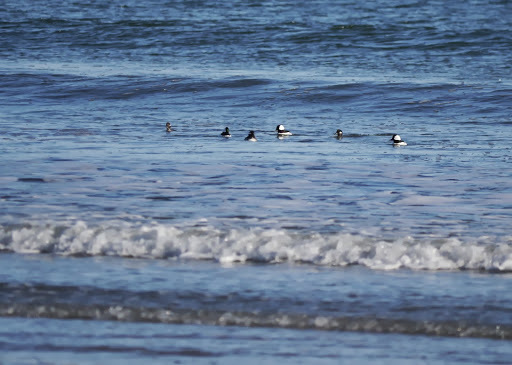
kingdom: Animalia
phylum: Chordata
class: Aves
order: Anseriformes
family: Anatidae
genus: Bucephala
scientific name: Bucephala albeola
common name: Bufflehead
